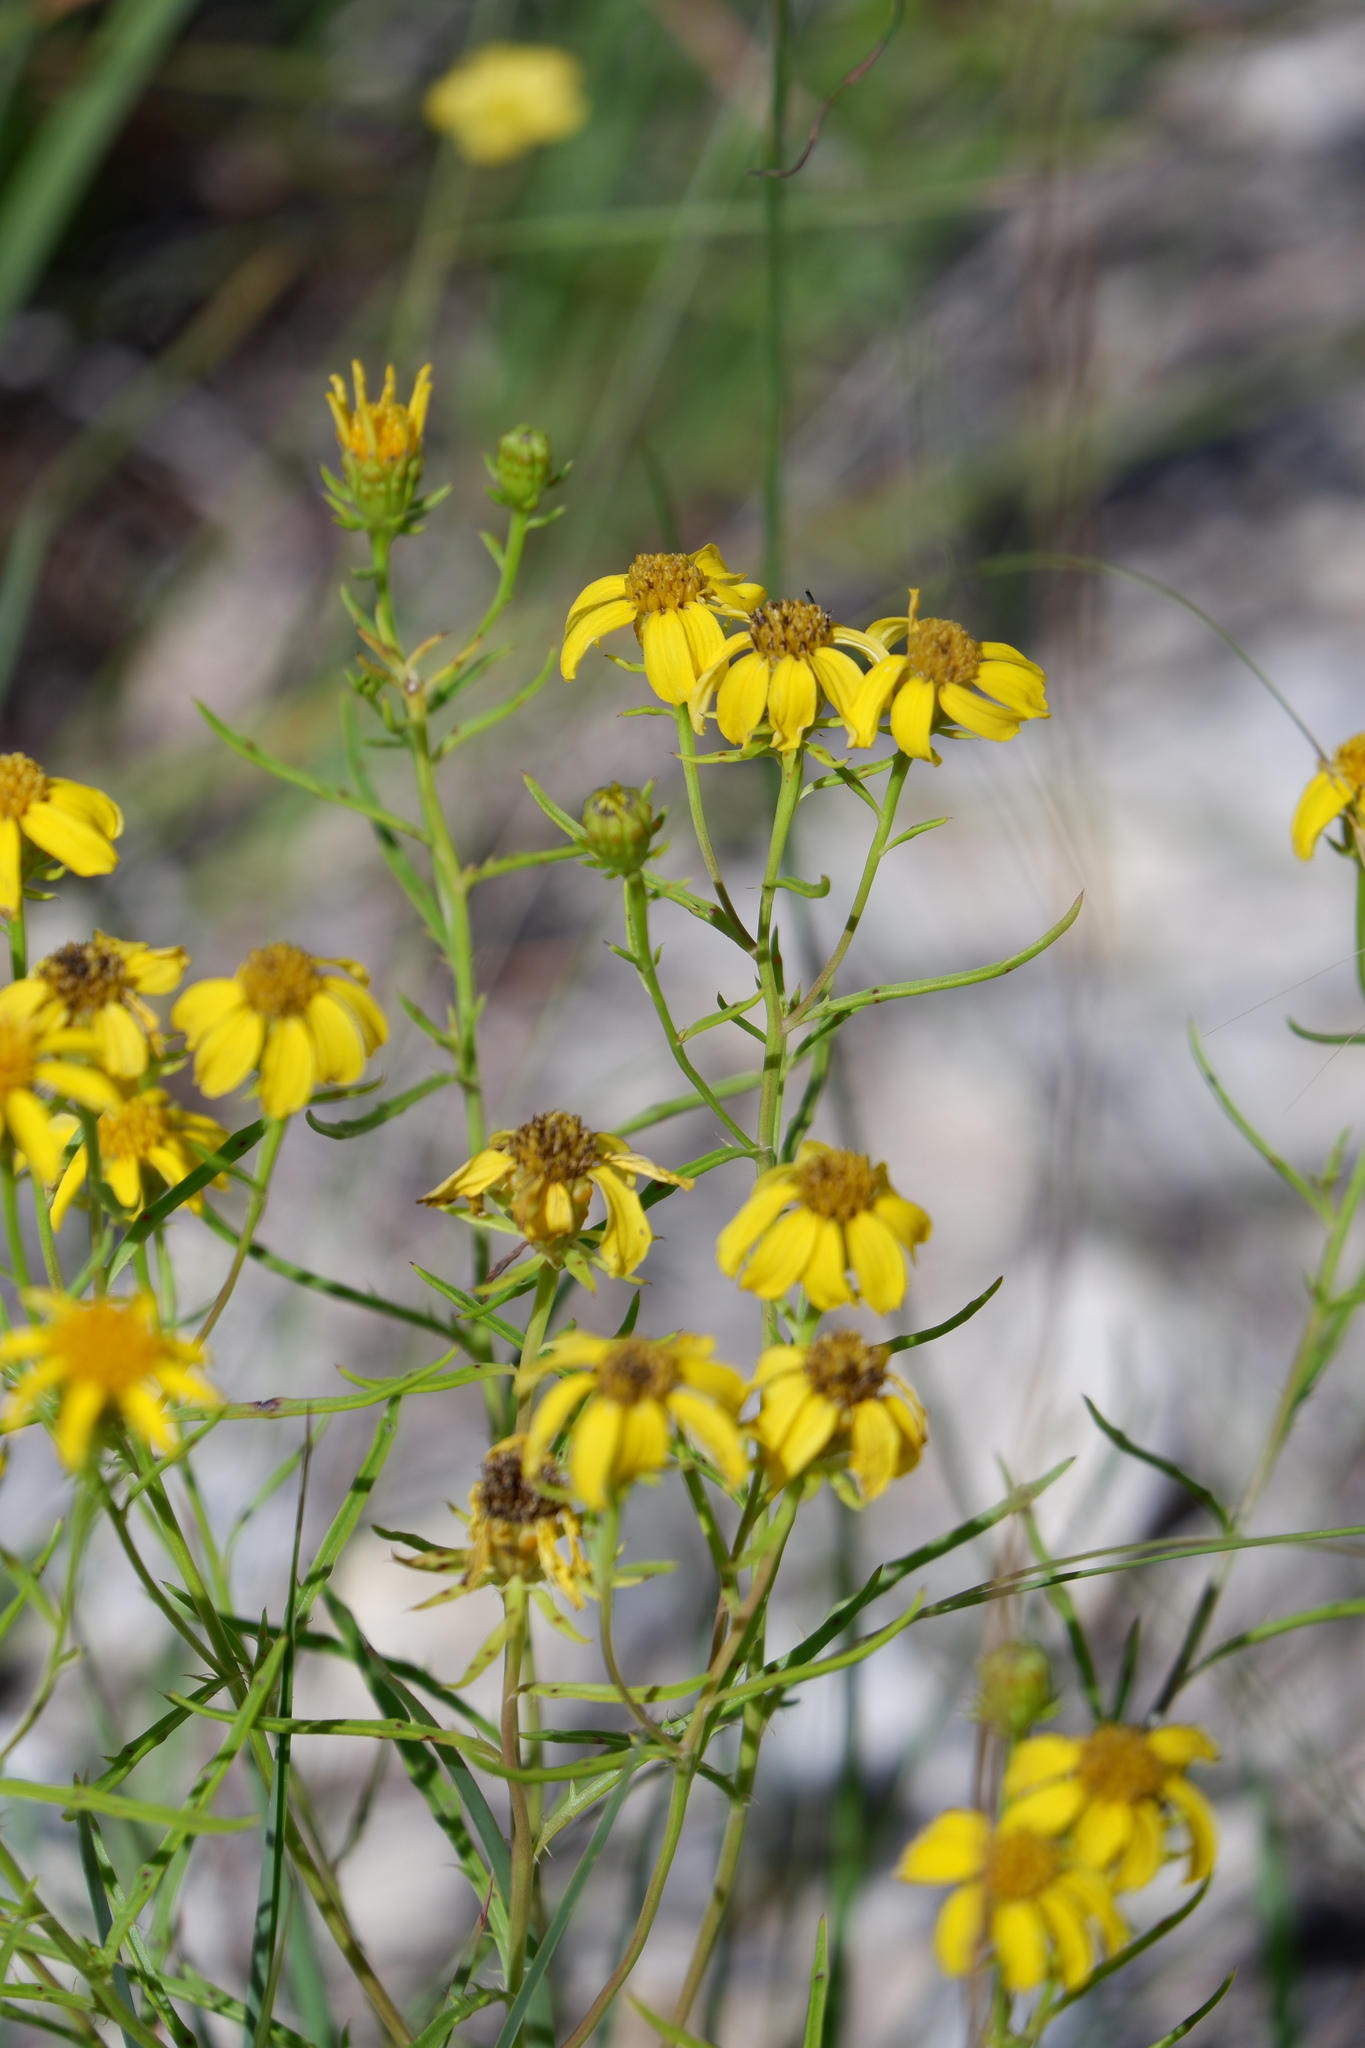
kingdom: Plantae
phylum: Tracheophyta
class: Magnoliopsida
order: Asterales
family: Asteraceae
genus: Dysodiopsis
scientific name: Dysodiopsis tagetoides
